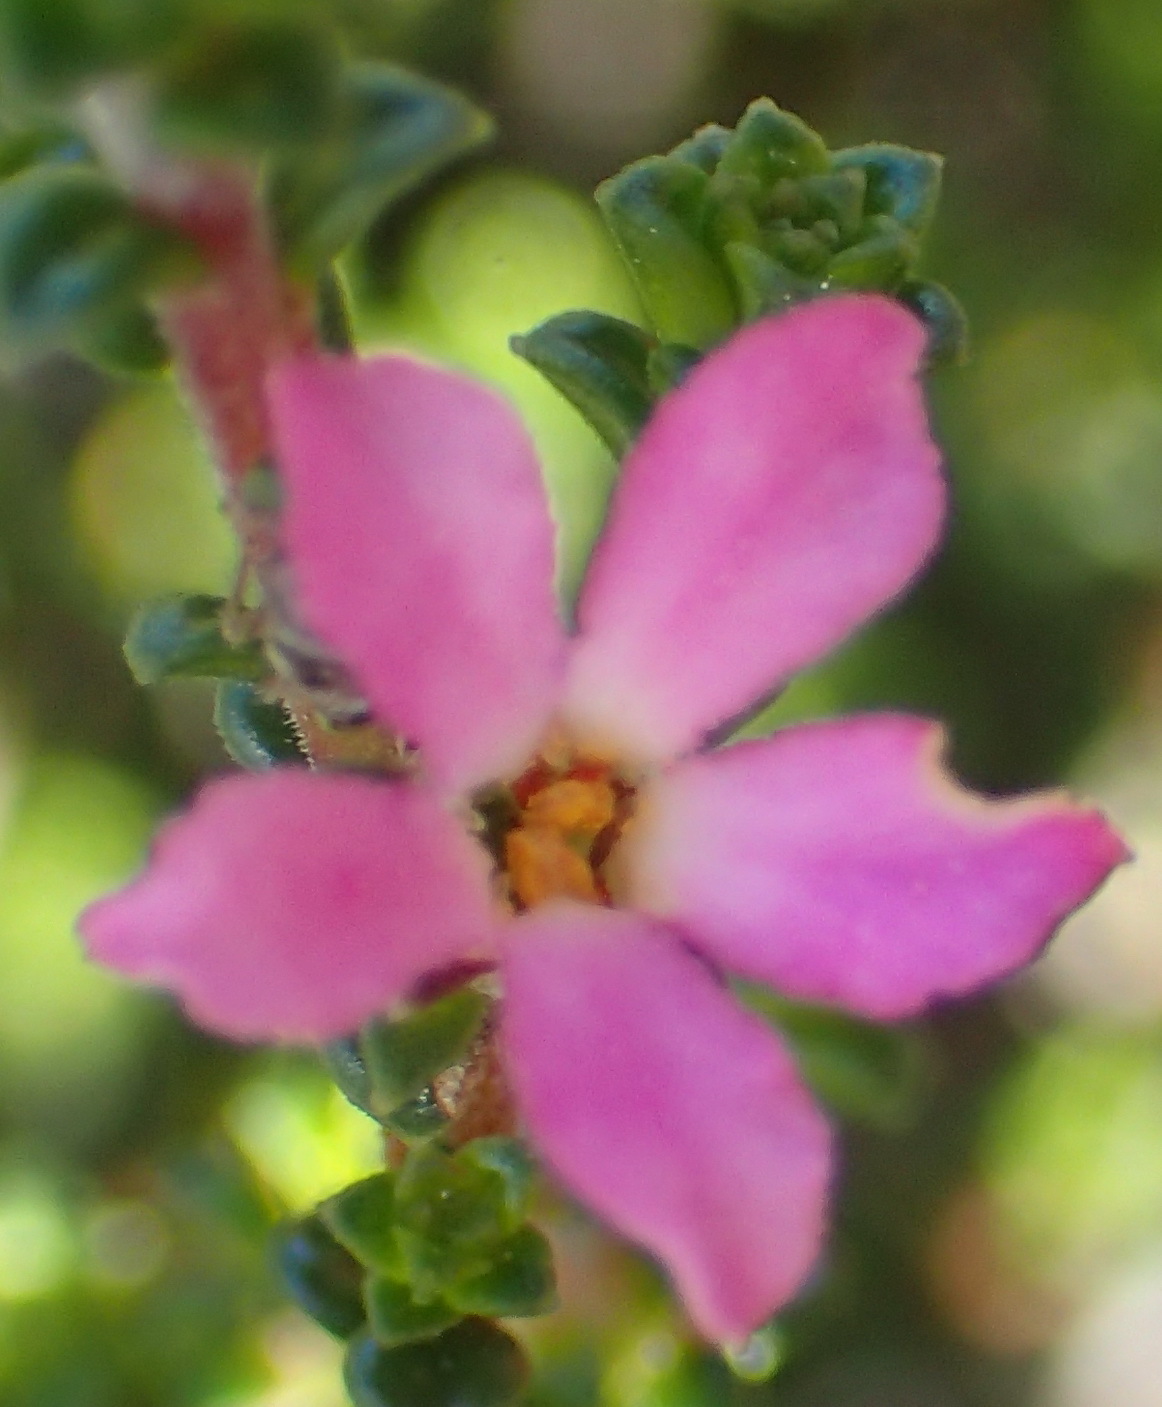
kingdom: Plantae
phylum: Tracheophyta
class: Magnoliopsida
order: Sapindales
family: Rutaceae
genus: Acmadenia
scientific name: Acmadenia heterophylla
